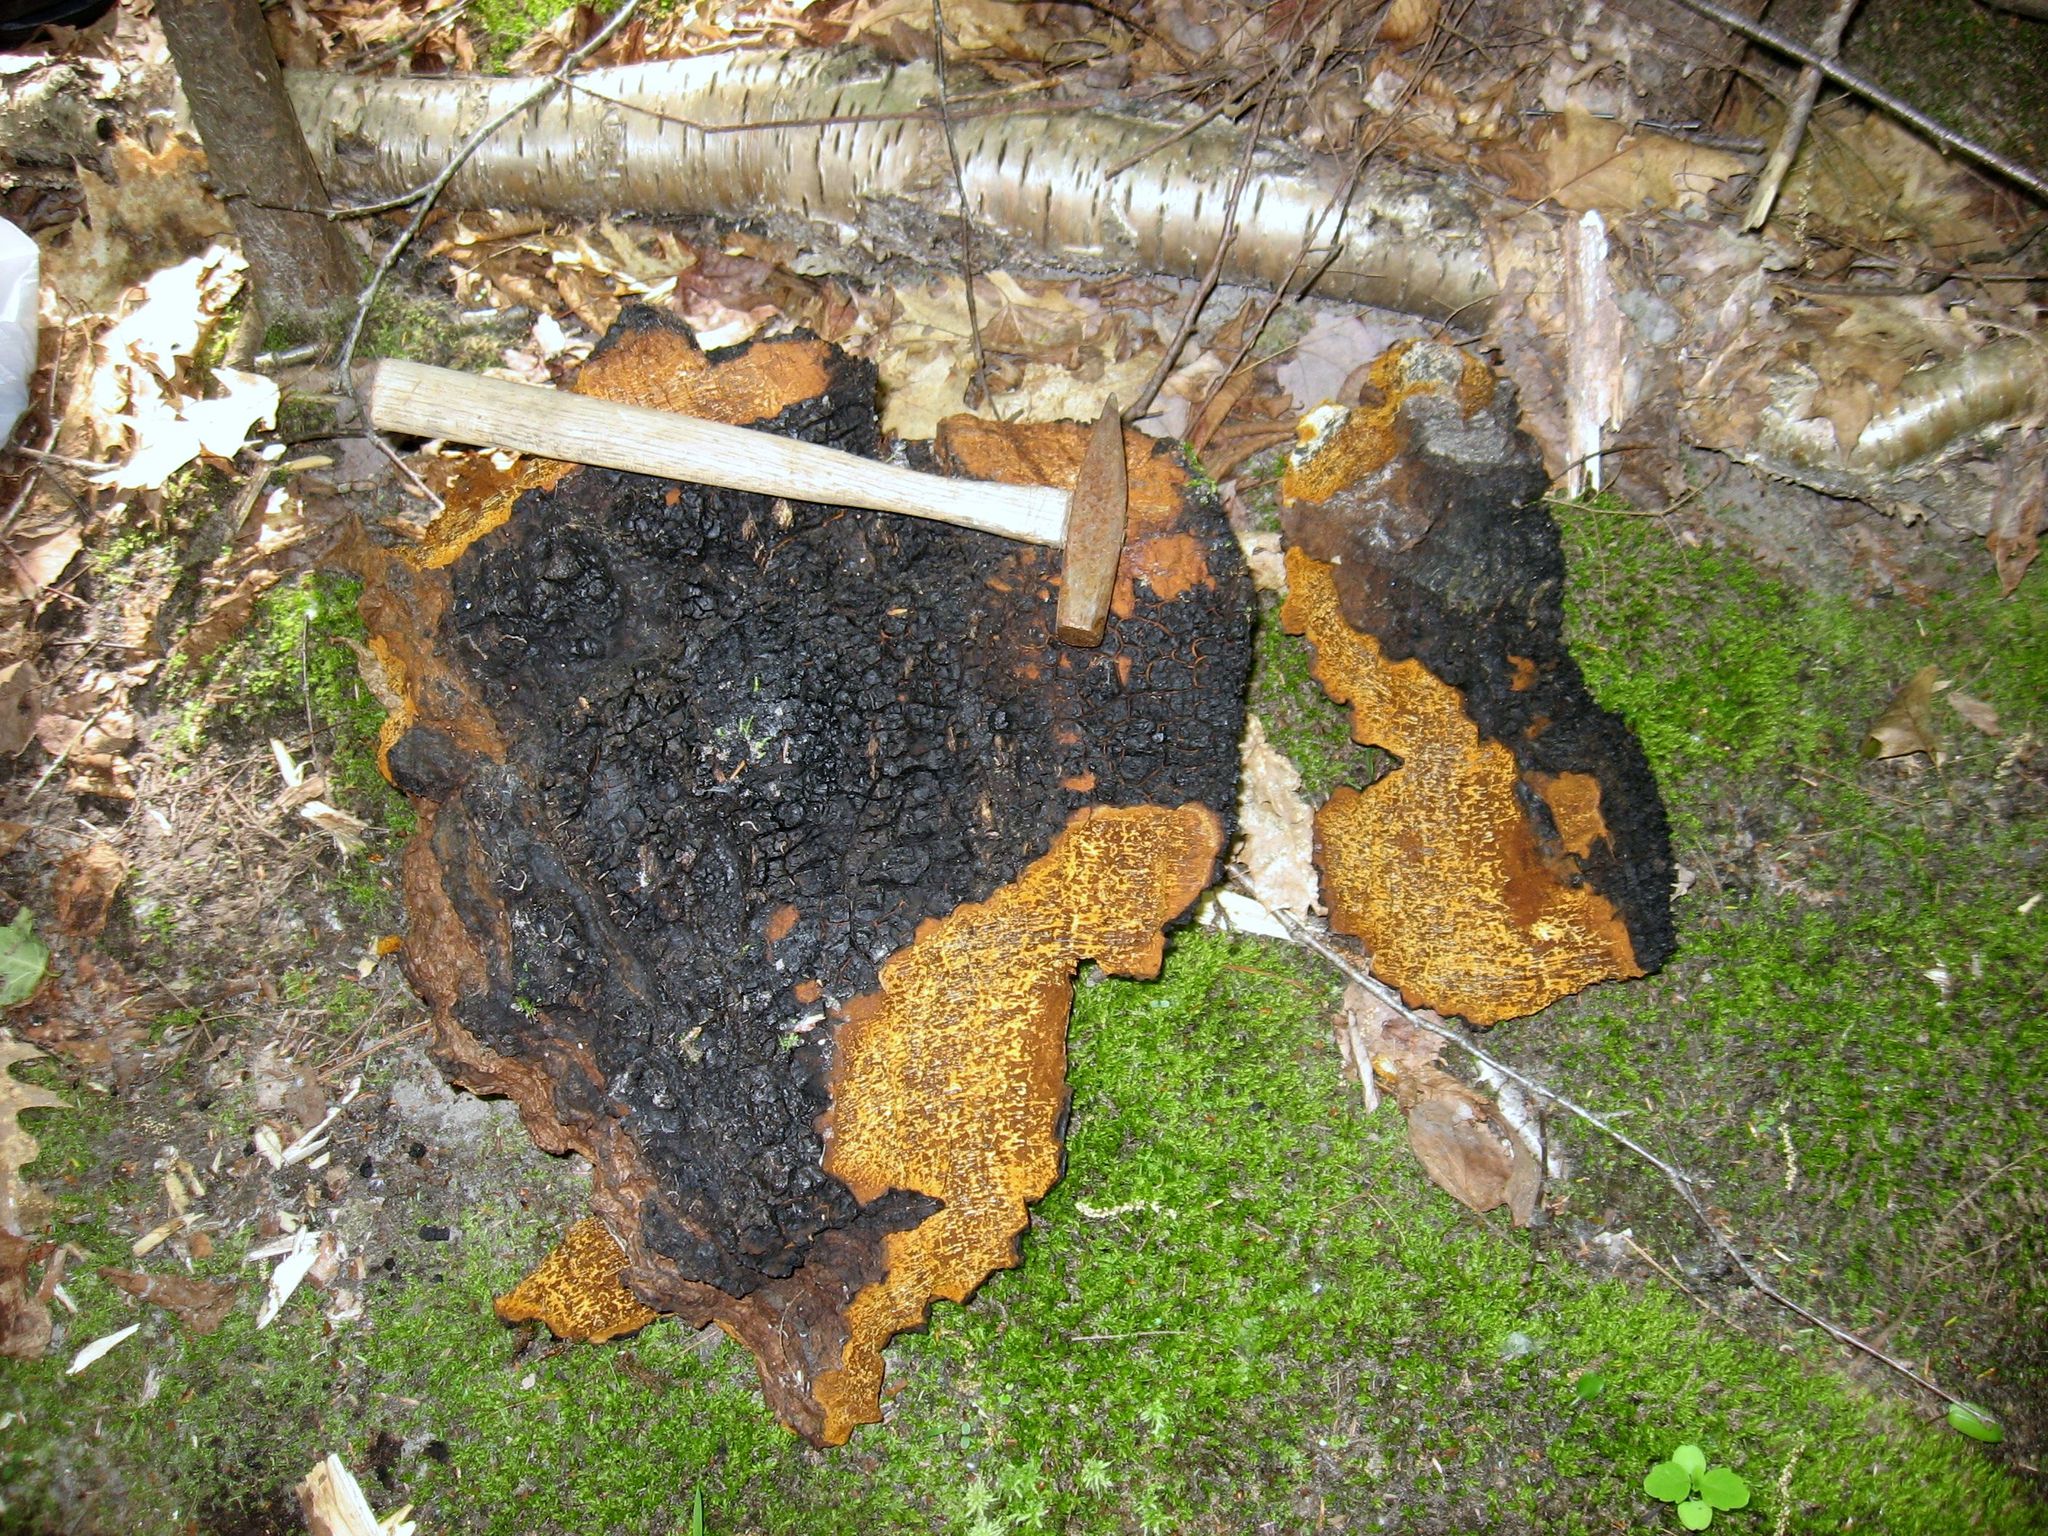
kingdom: Fungi
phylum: Basidiomycota
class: Agaricomycetes
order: Hymenochaetales
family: Hymenochaetaceae
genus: Inonotus
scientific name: Inonotus obliquus
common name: Chaga
